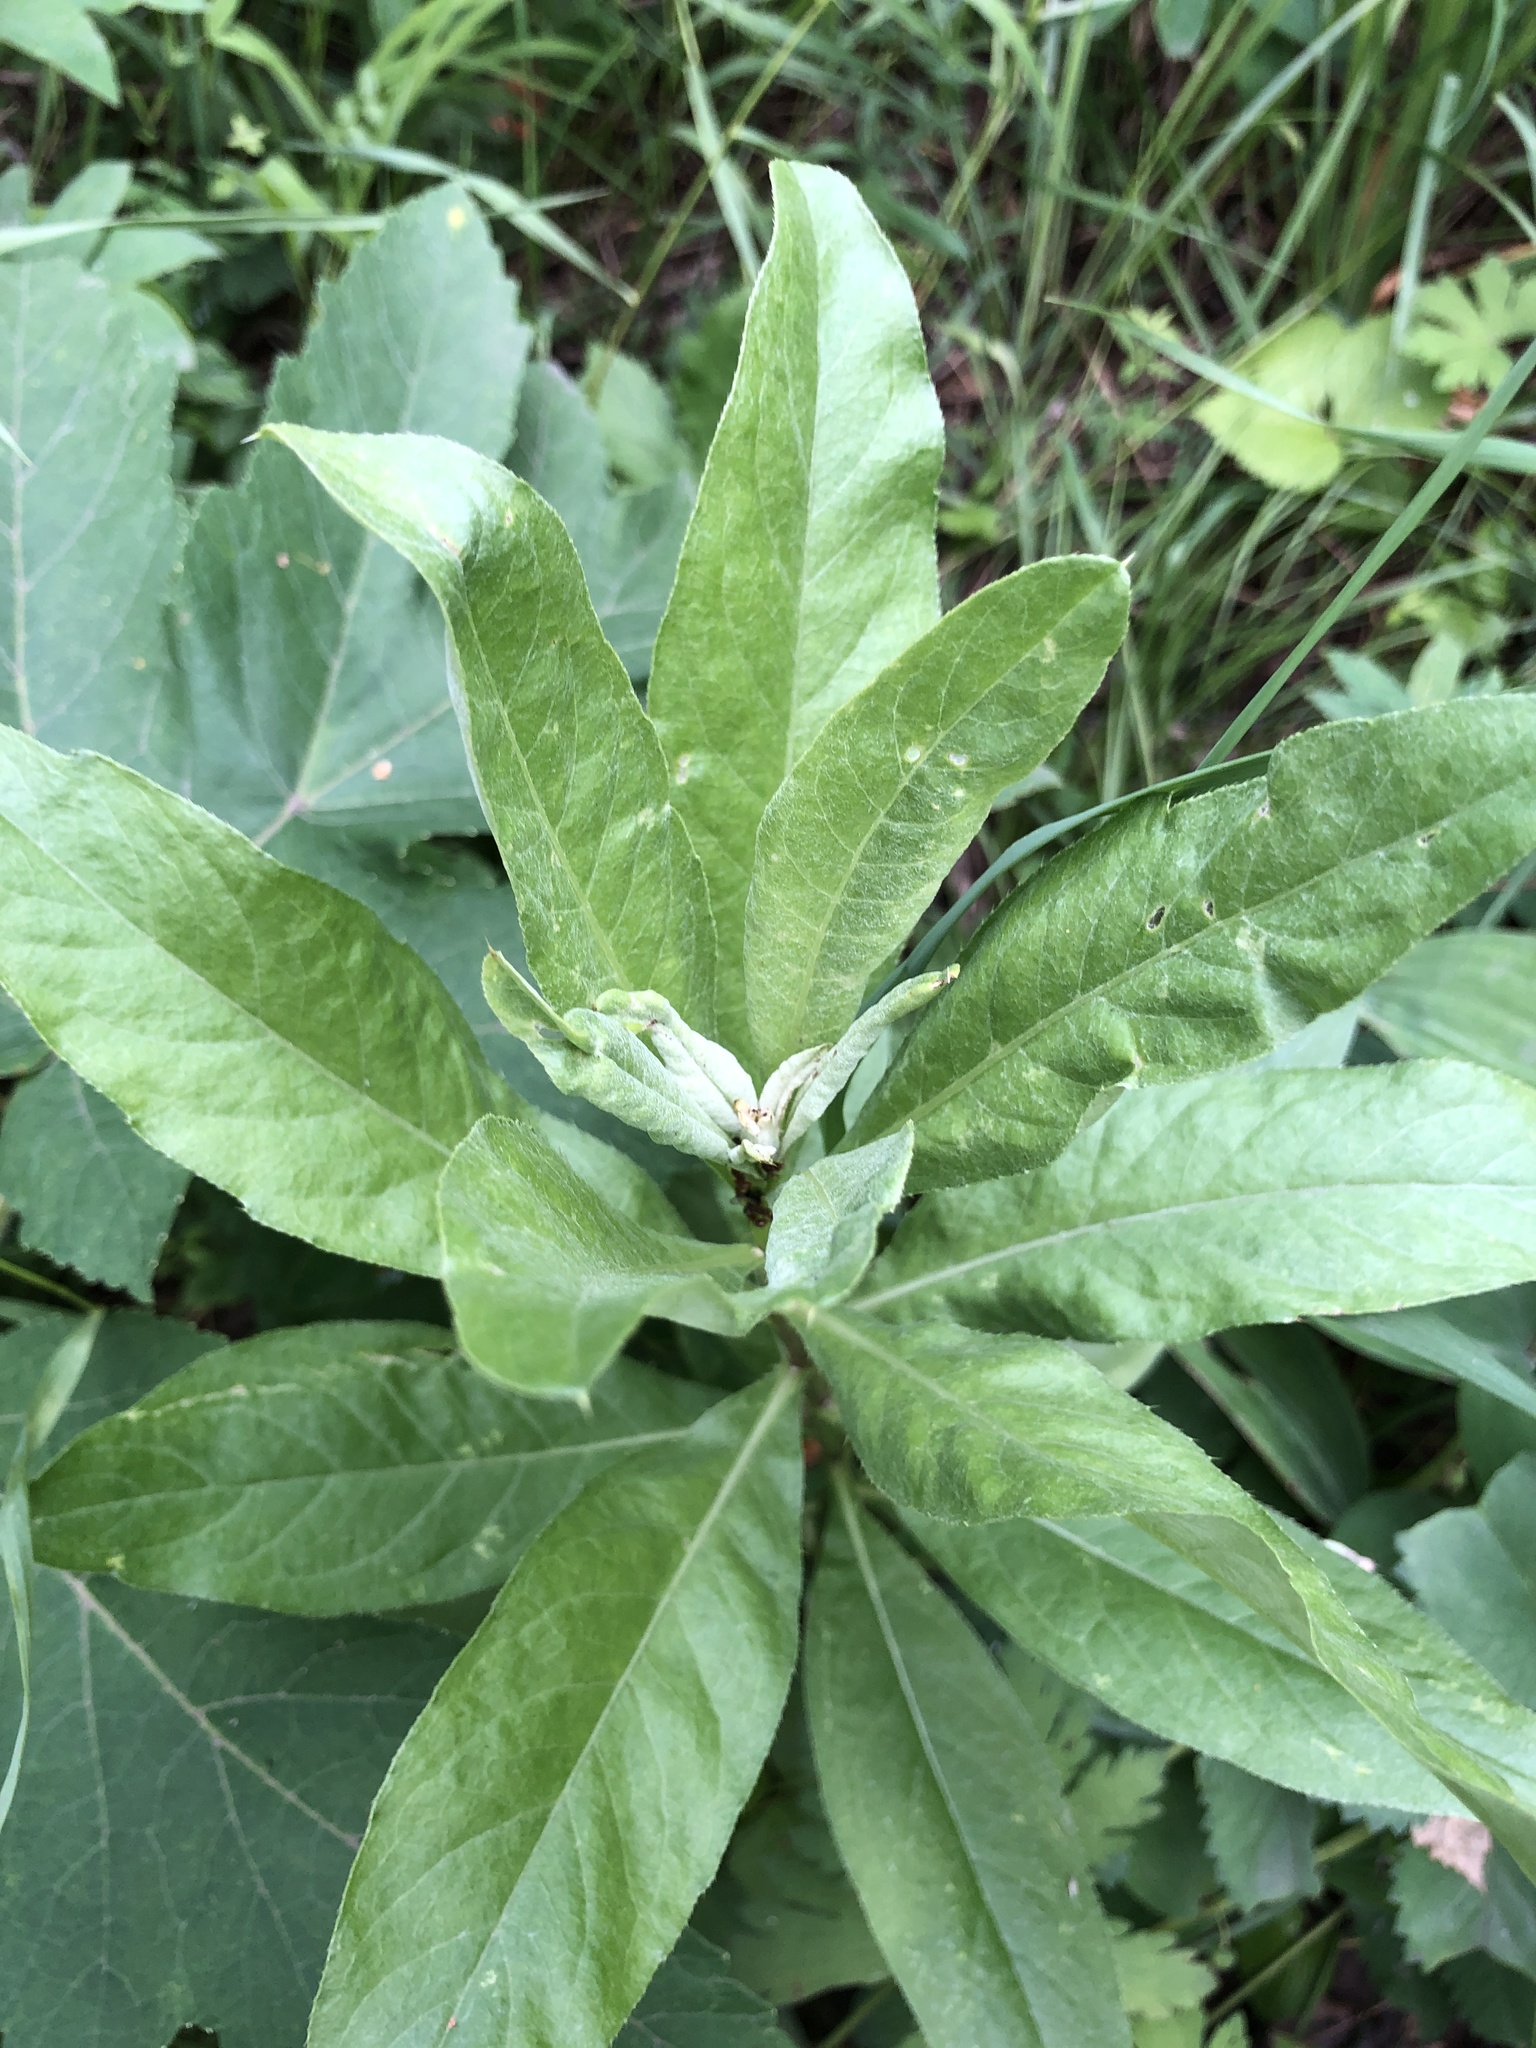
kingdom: Plantae
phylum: Tracheophyta
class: Magnoliopsida
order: Asterales
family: Asteraceae
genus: Cirsium
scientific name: Cirsium arvense
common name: Creeping thistle
